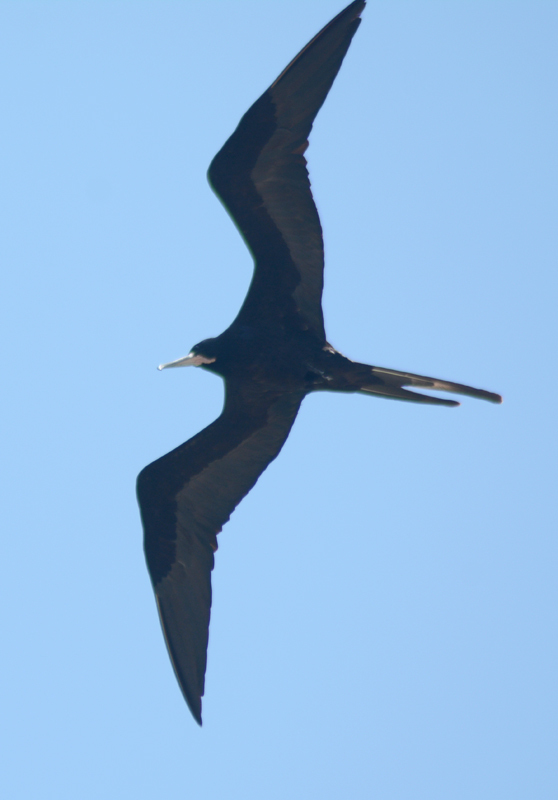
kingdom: Animalia
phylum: Chordata
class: Aves
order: Suliformes
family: Fregatidae
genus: Fregata
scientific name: Fregata magnificens
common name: Magnificent frigatebird
